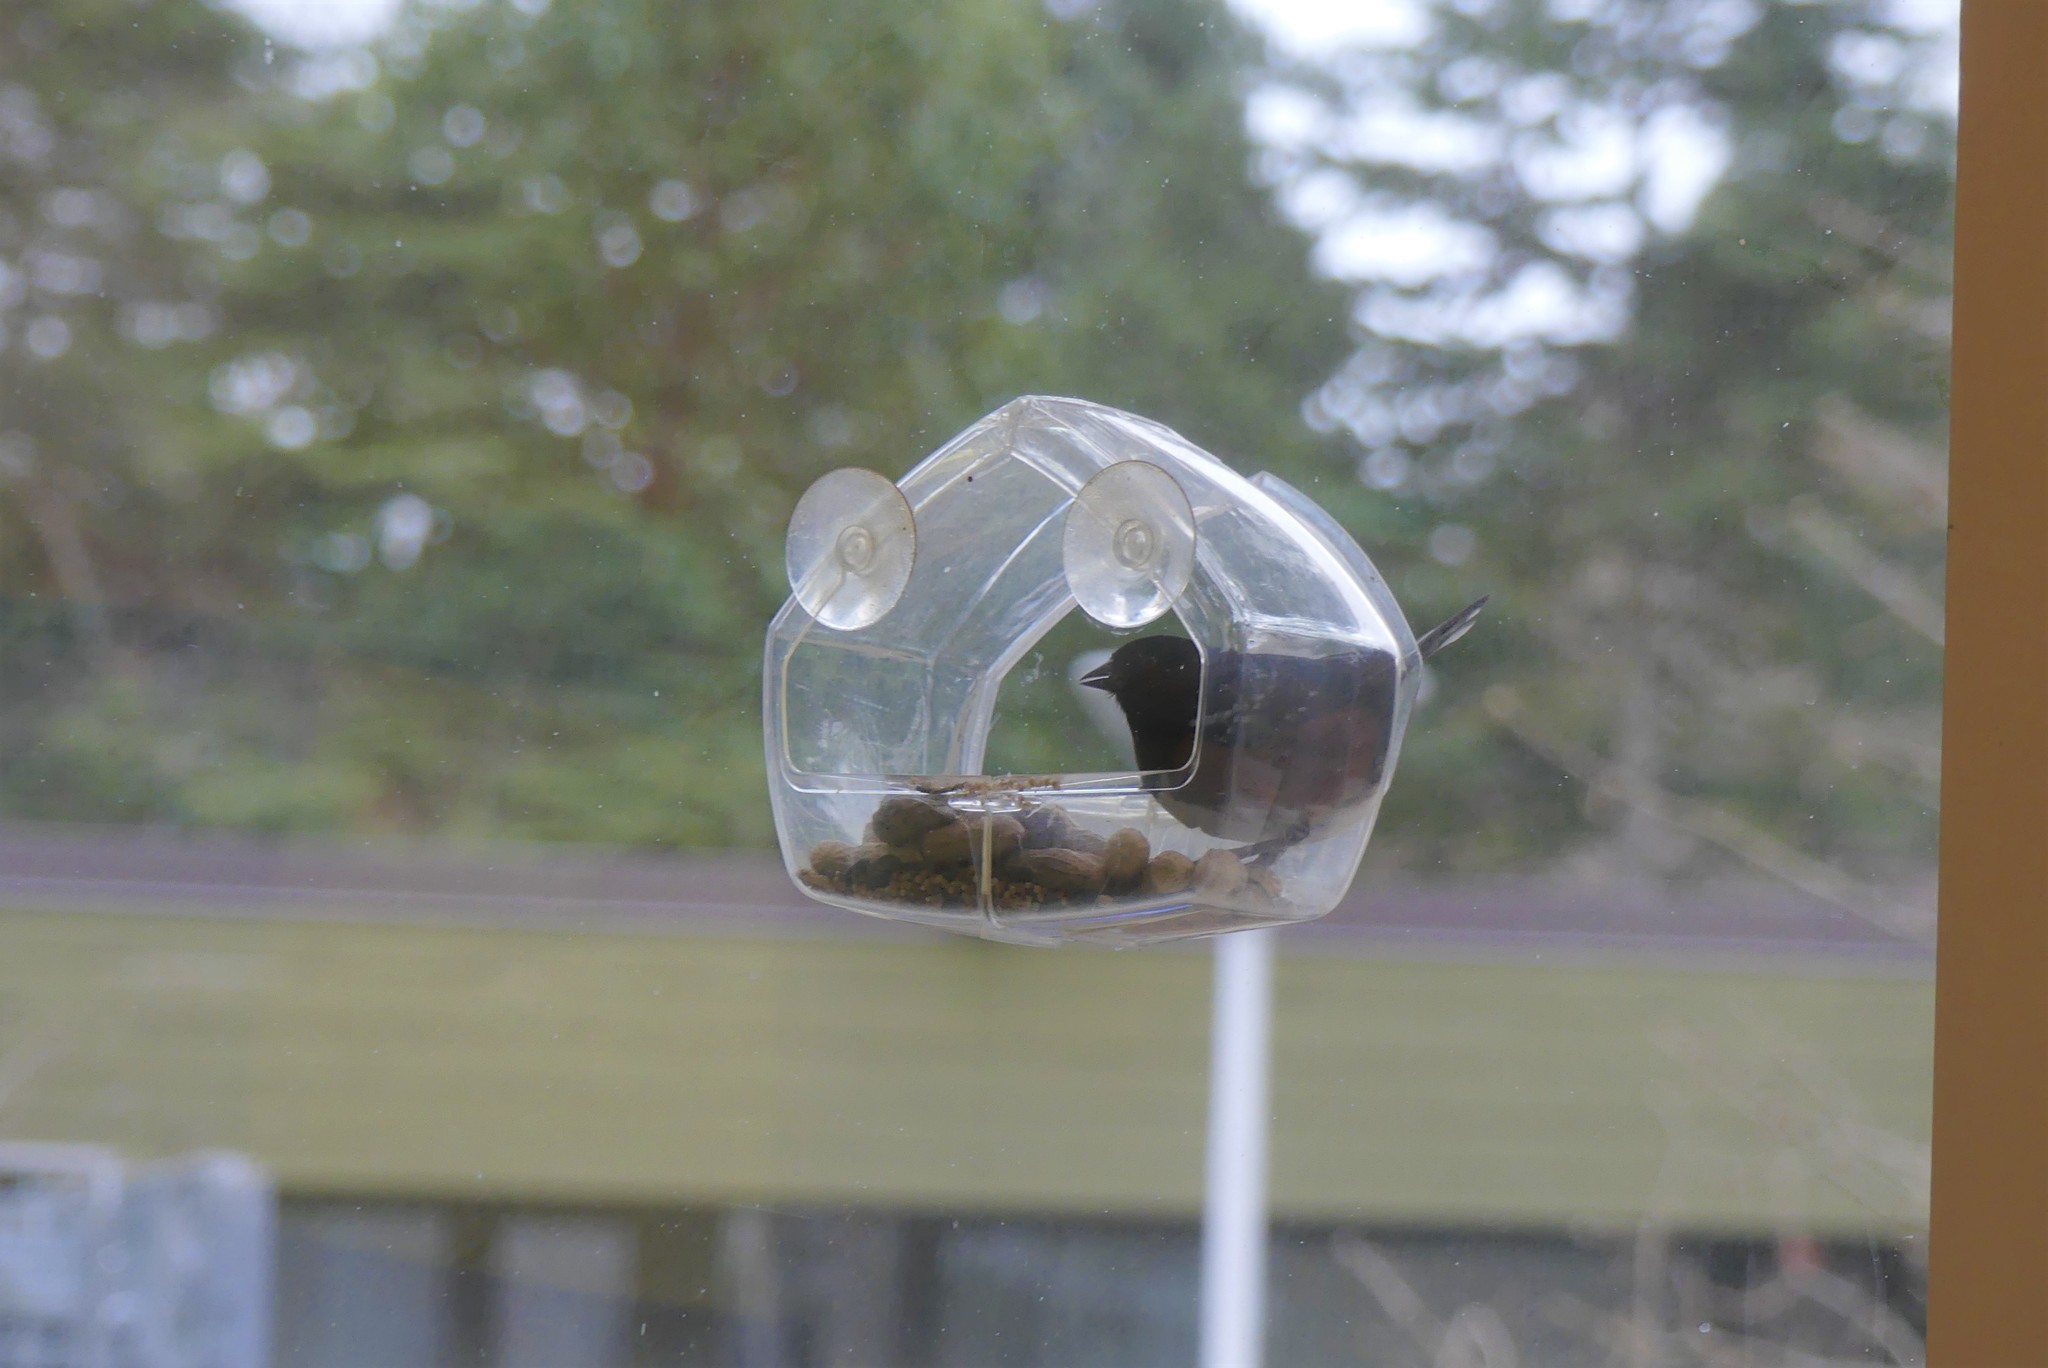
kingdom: Animalia
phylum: Chordata
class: Aves
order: Passeriformes
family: Passerellidae
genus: Pipilo
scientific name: Pipilo maculatus
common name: Spotted towhee
